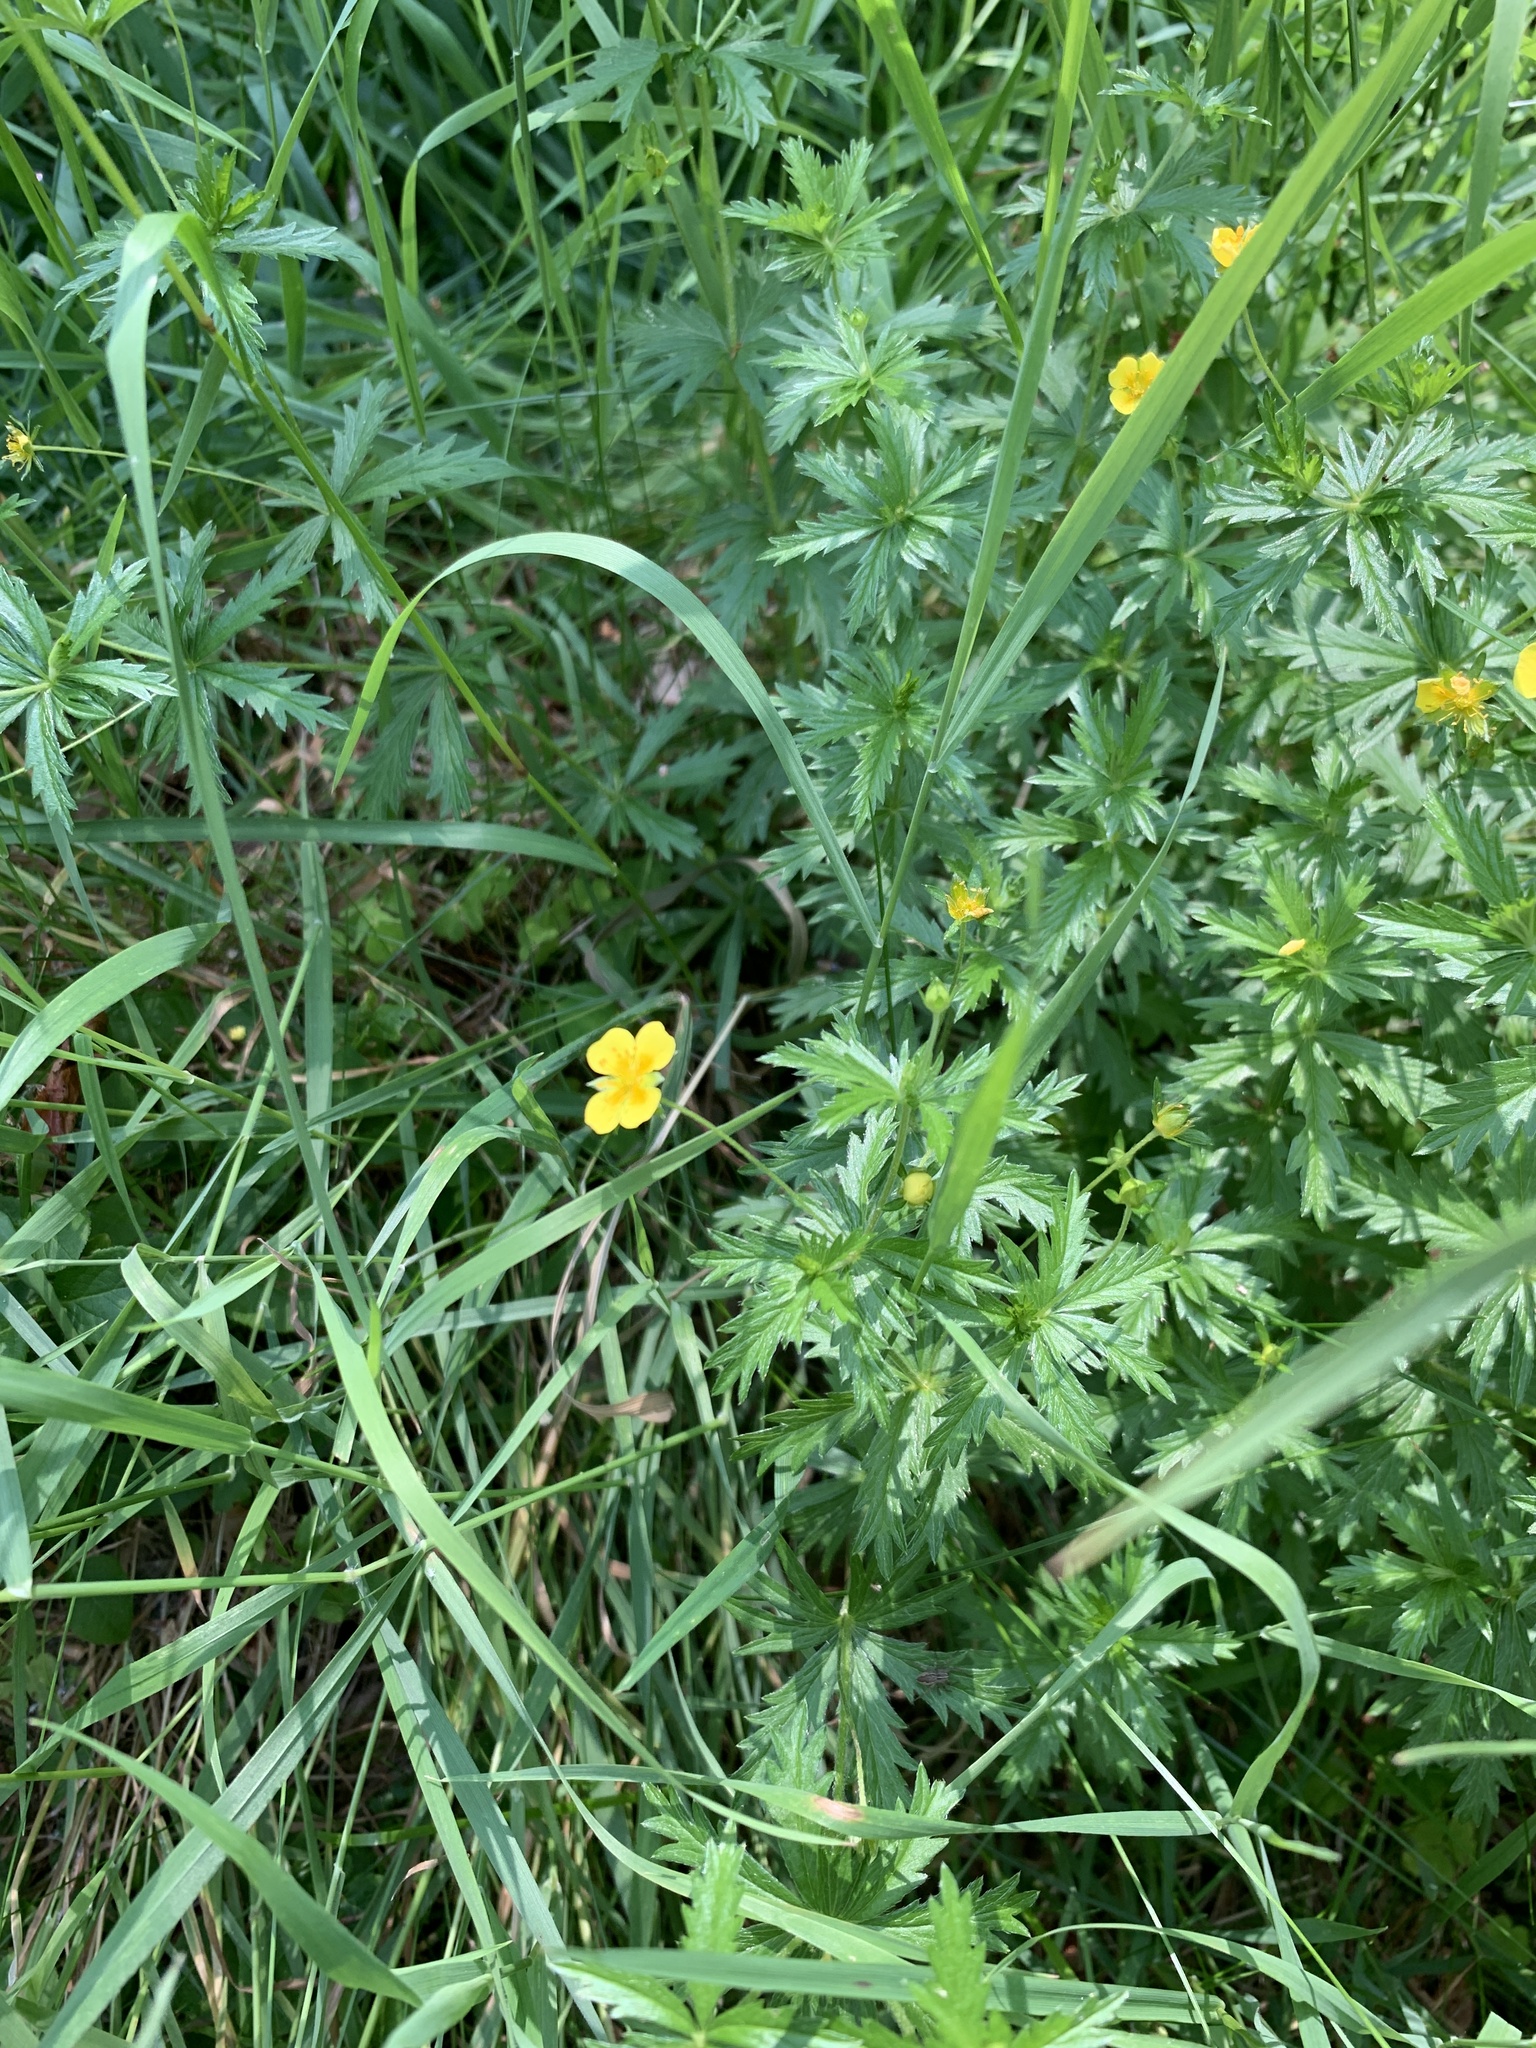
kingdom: Plantae
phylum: Tracheophyta
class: Magnoliopsida
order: Rosales
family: Rosaceae
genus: Potentilla
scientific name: Potentilla erecta
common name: Tormentil
